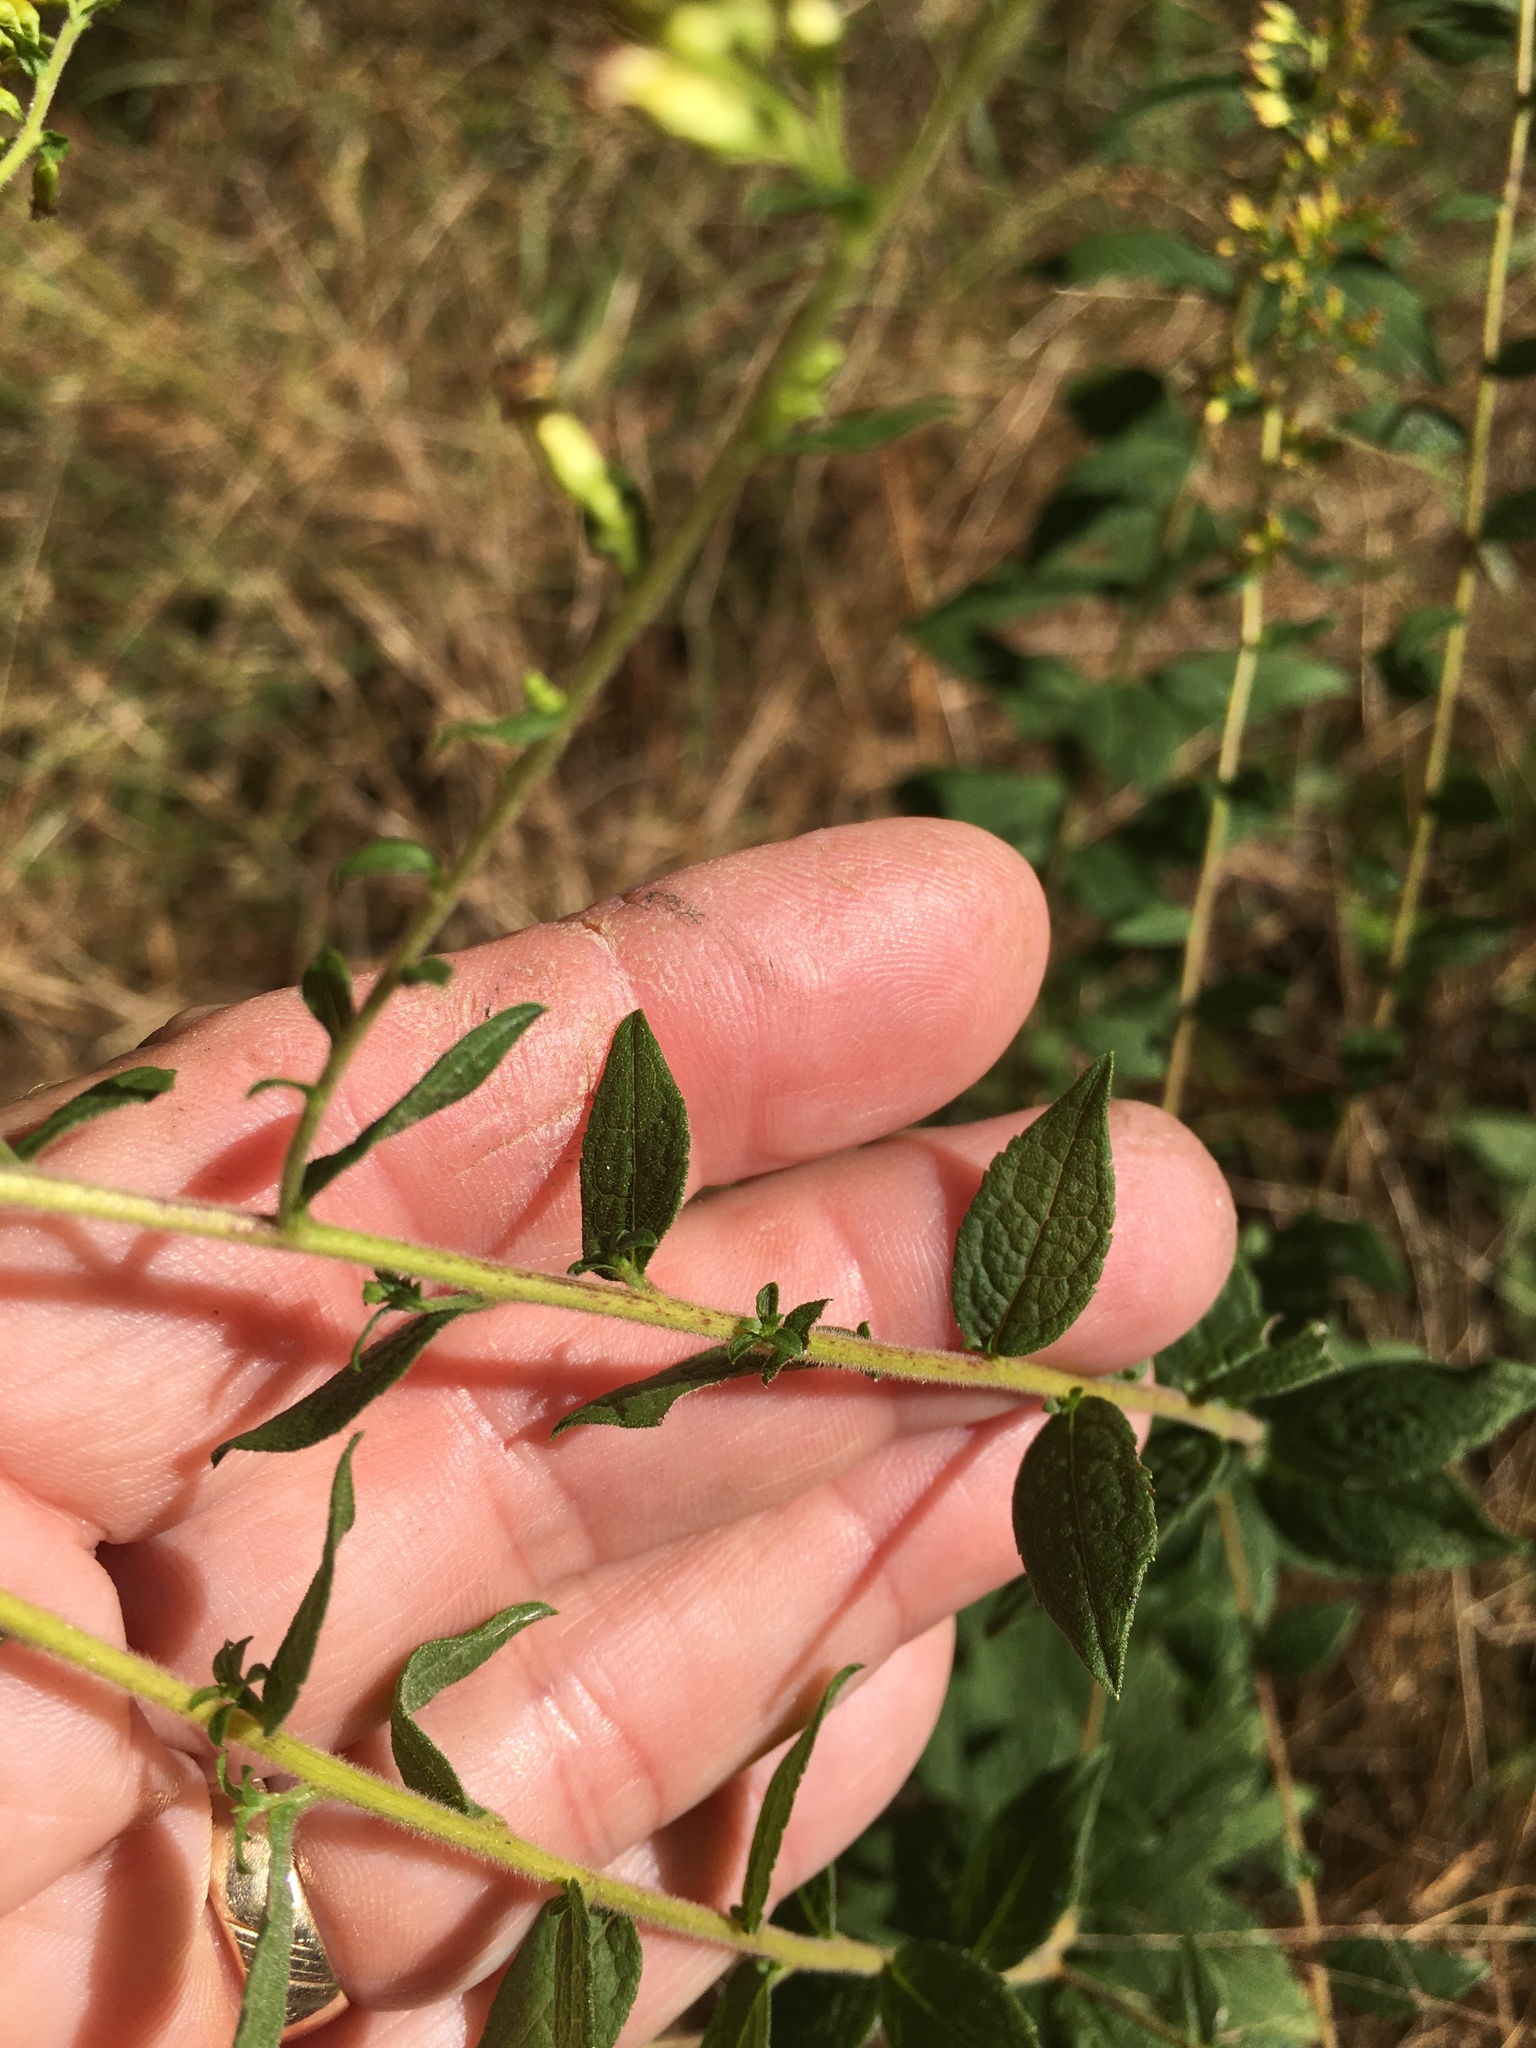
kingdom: Plantae
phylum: Tracheophyta
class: Magnoliopsida
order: Asterales
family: Asteraceae
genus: Solidago
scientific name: Solidago rugosa
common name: Rough-stemmed goldenrod
